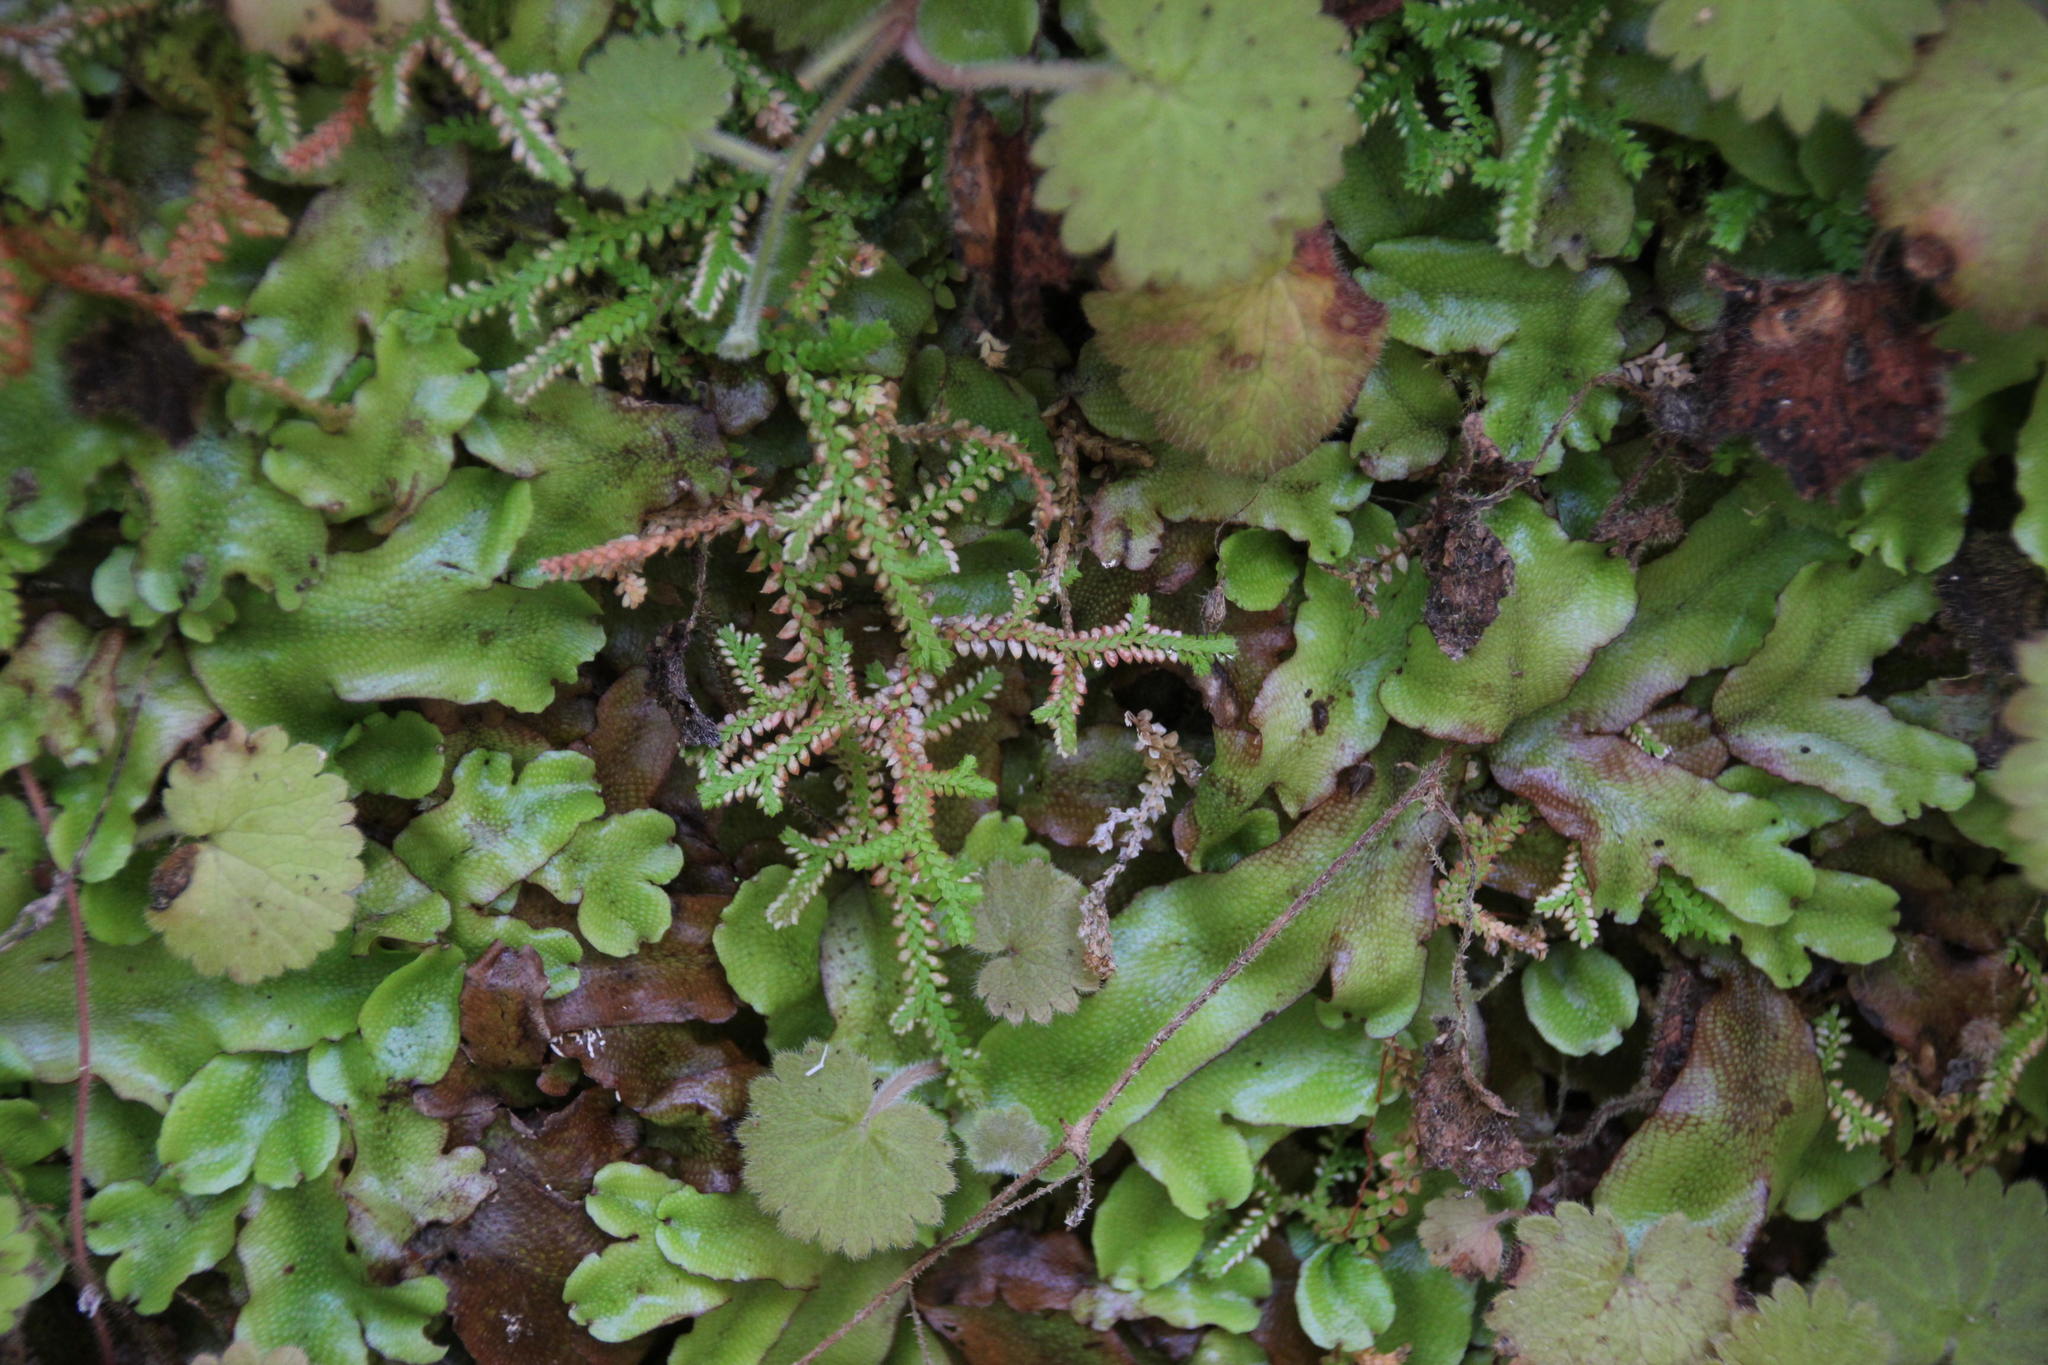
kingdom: Plantae
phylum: Tracheophyta
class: Lycopodiopsida
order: Selaginellales
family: Selaginellaceae
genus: Selaginella
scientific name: Selaginella denticulata
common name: Toothed-leaved clubmoss
